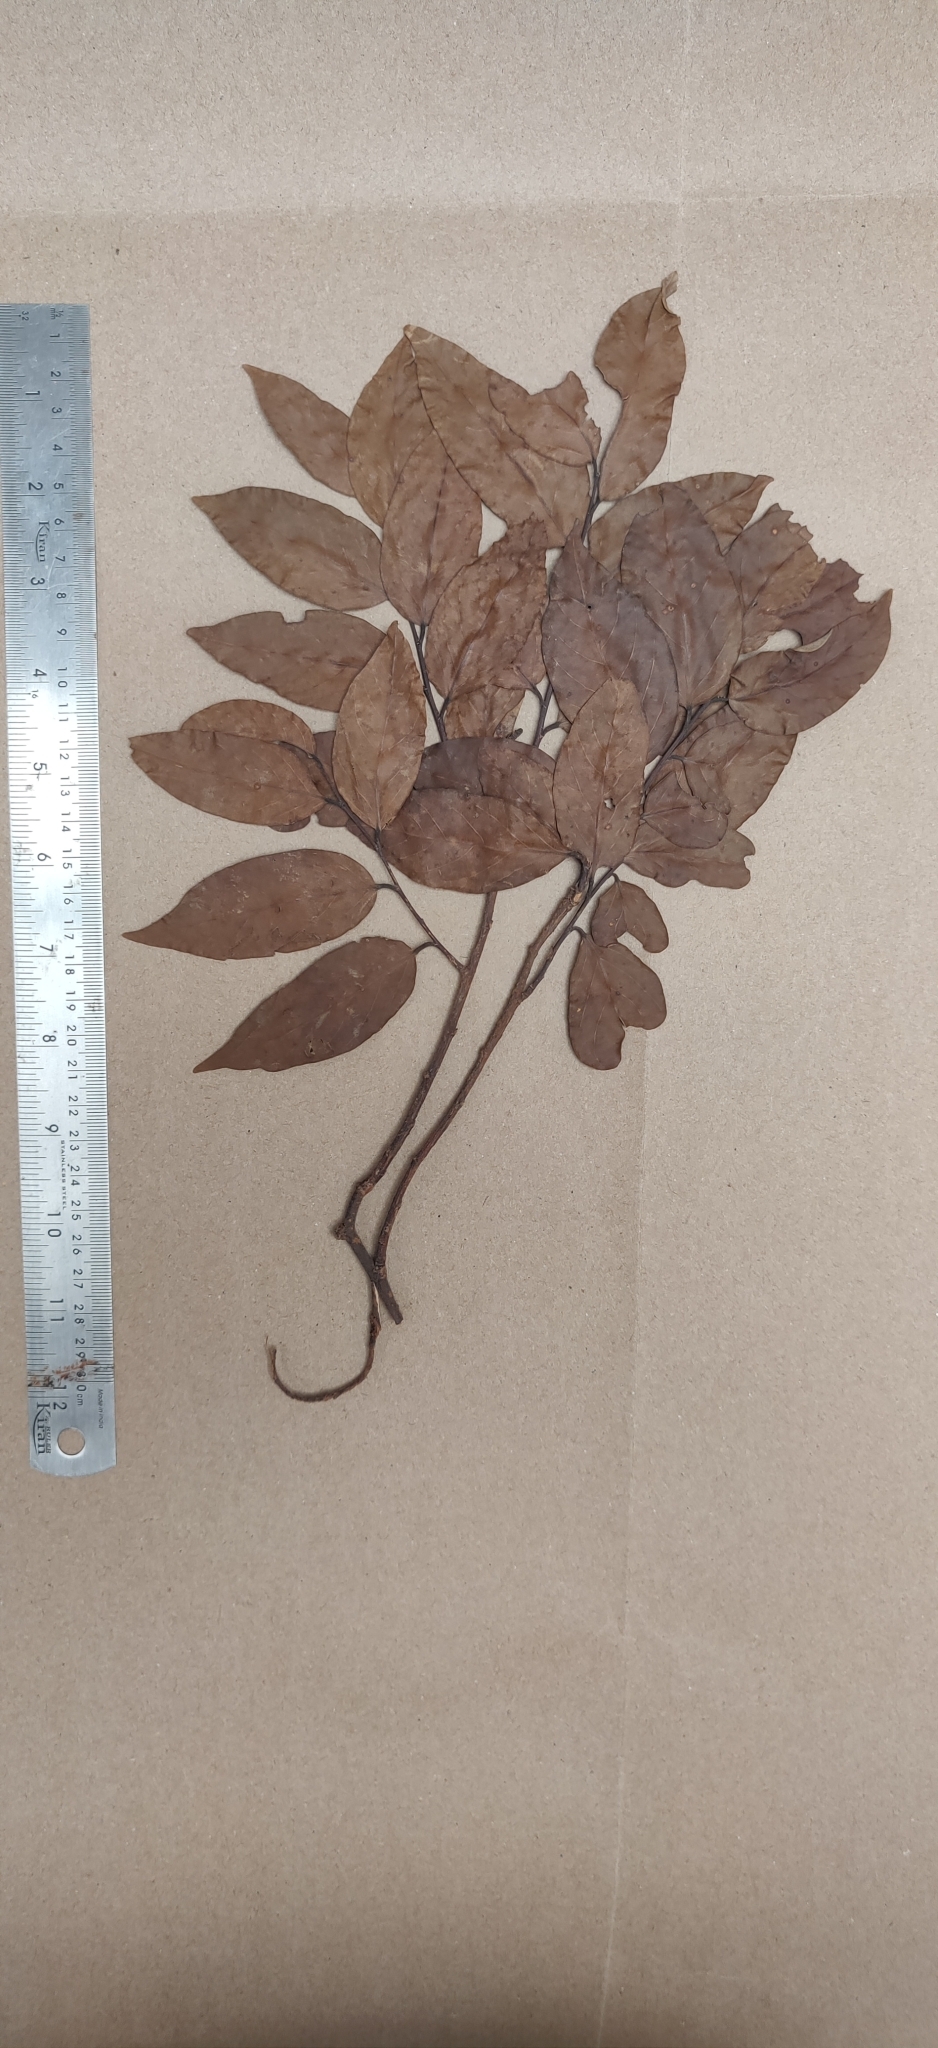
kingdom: Plantae
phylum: Tracheophyta
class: Magnoliopsida
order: Malvales
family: Dipterocarpaceae
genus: Hopea
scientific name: Hopea parviflora
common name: Malabar ironwood
